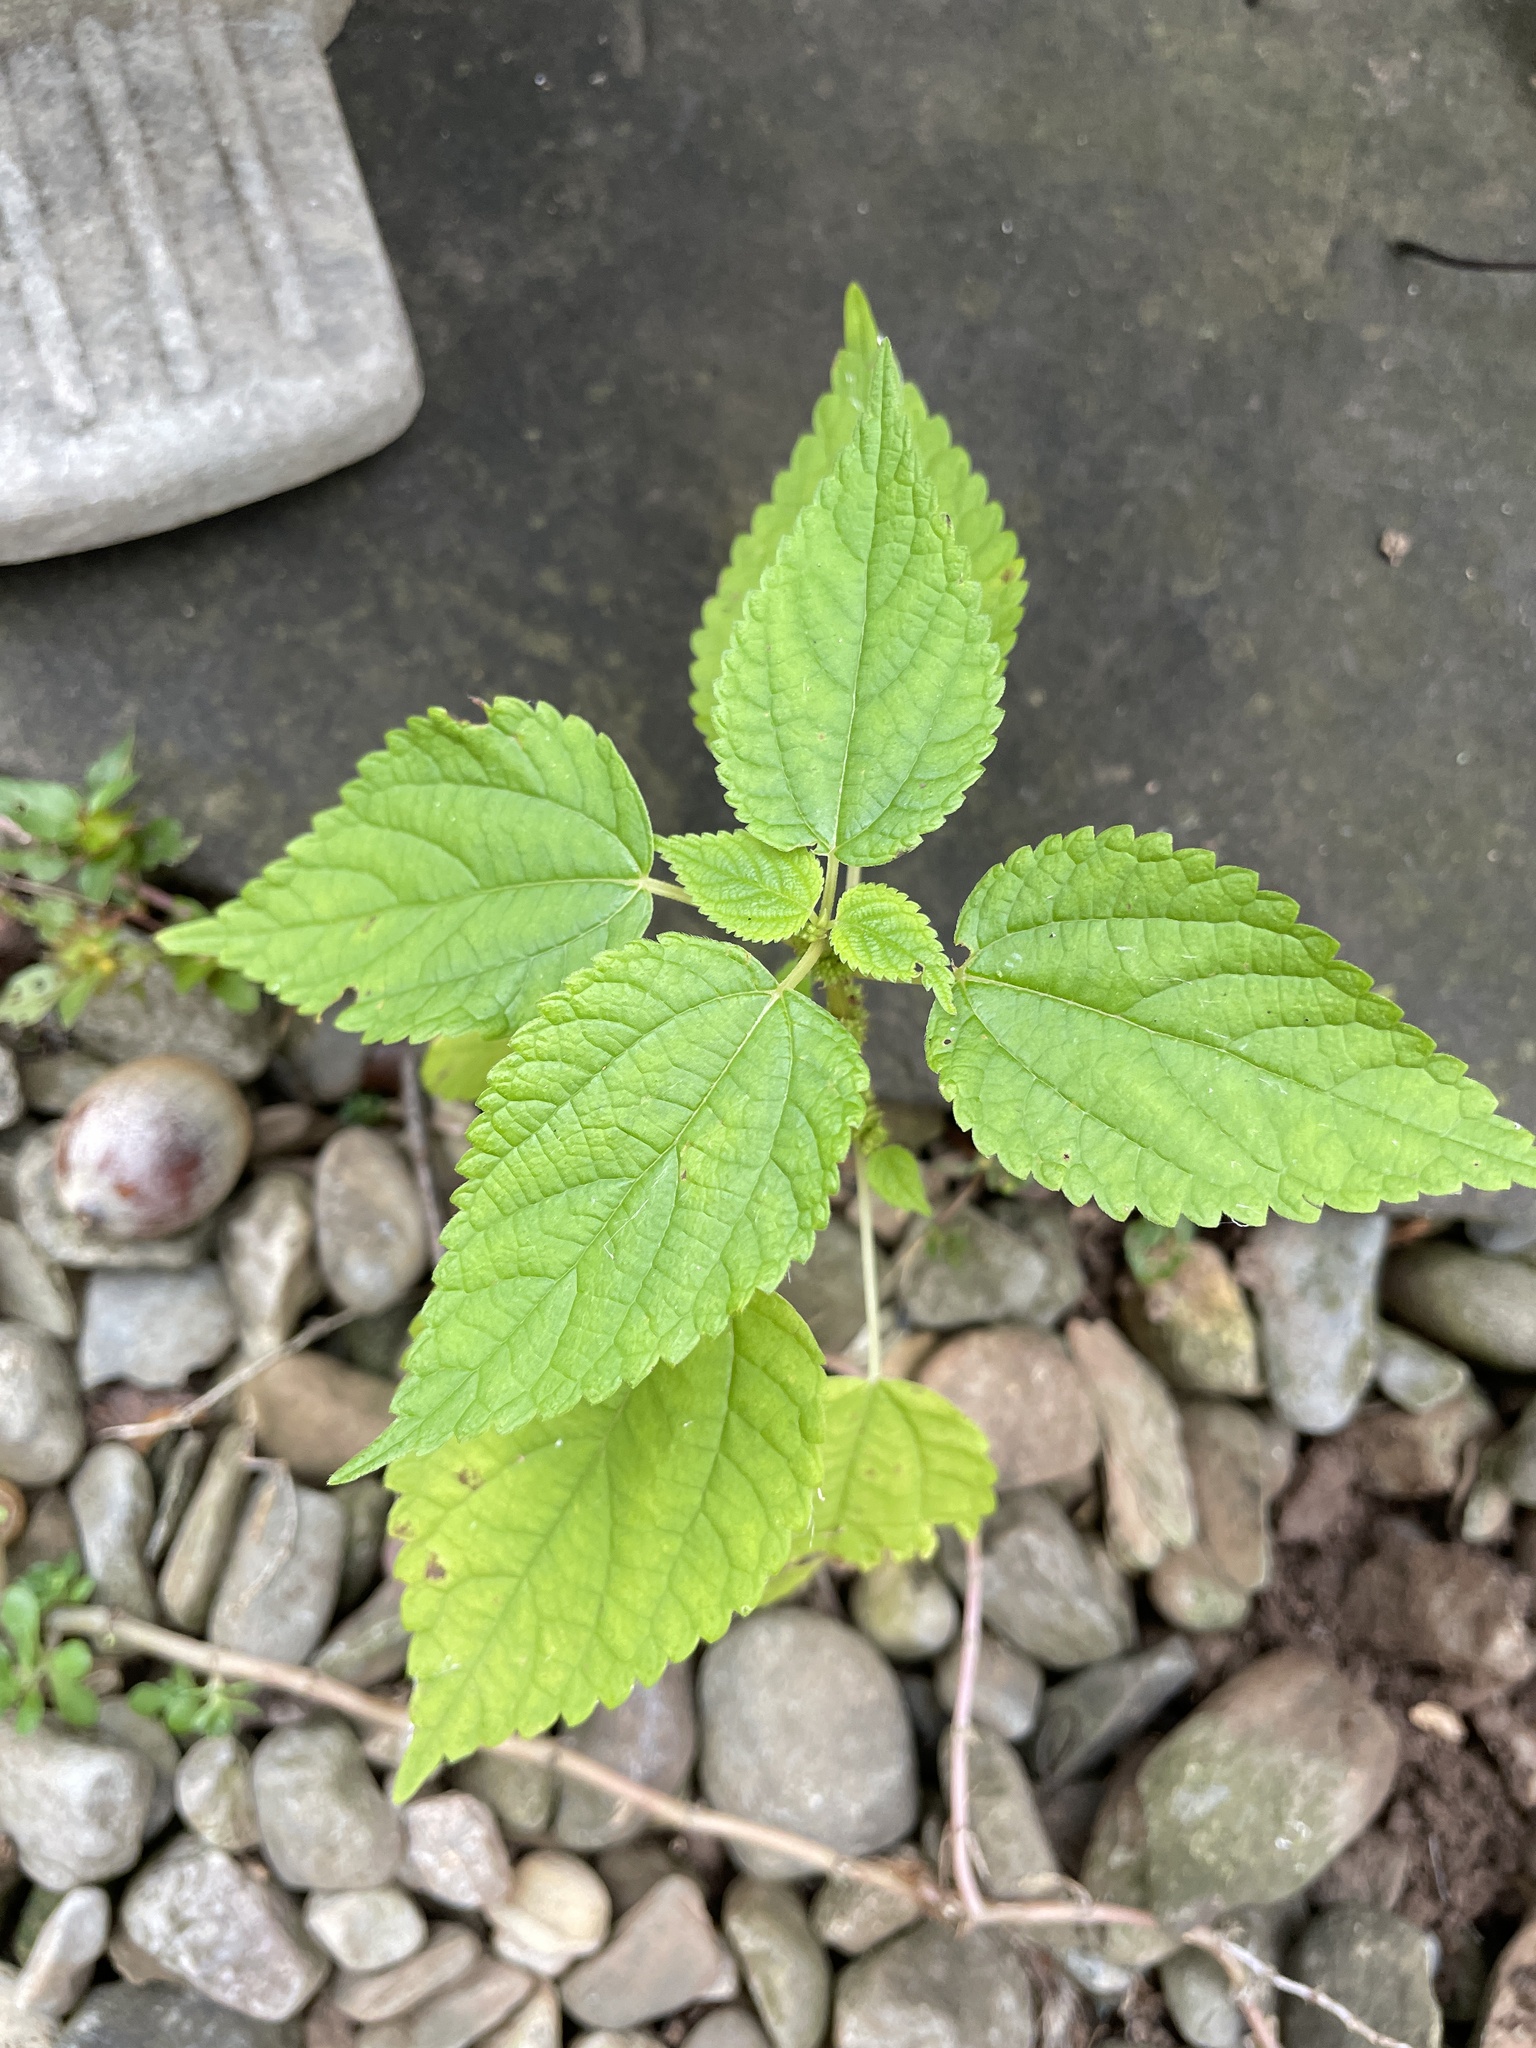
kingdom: Plantae
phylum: Tracheophyta
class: Magnoliopsida
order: Rosales
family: Urticaceae
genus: Boehmeria
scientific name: Boehmeria cylindrica
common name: Bog-hemp
